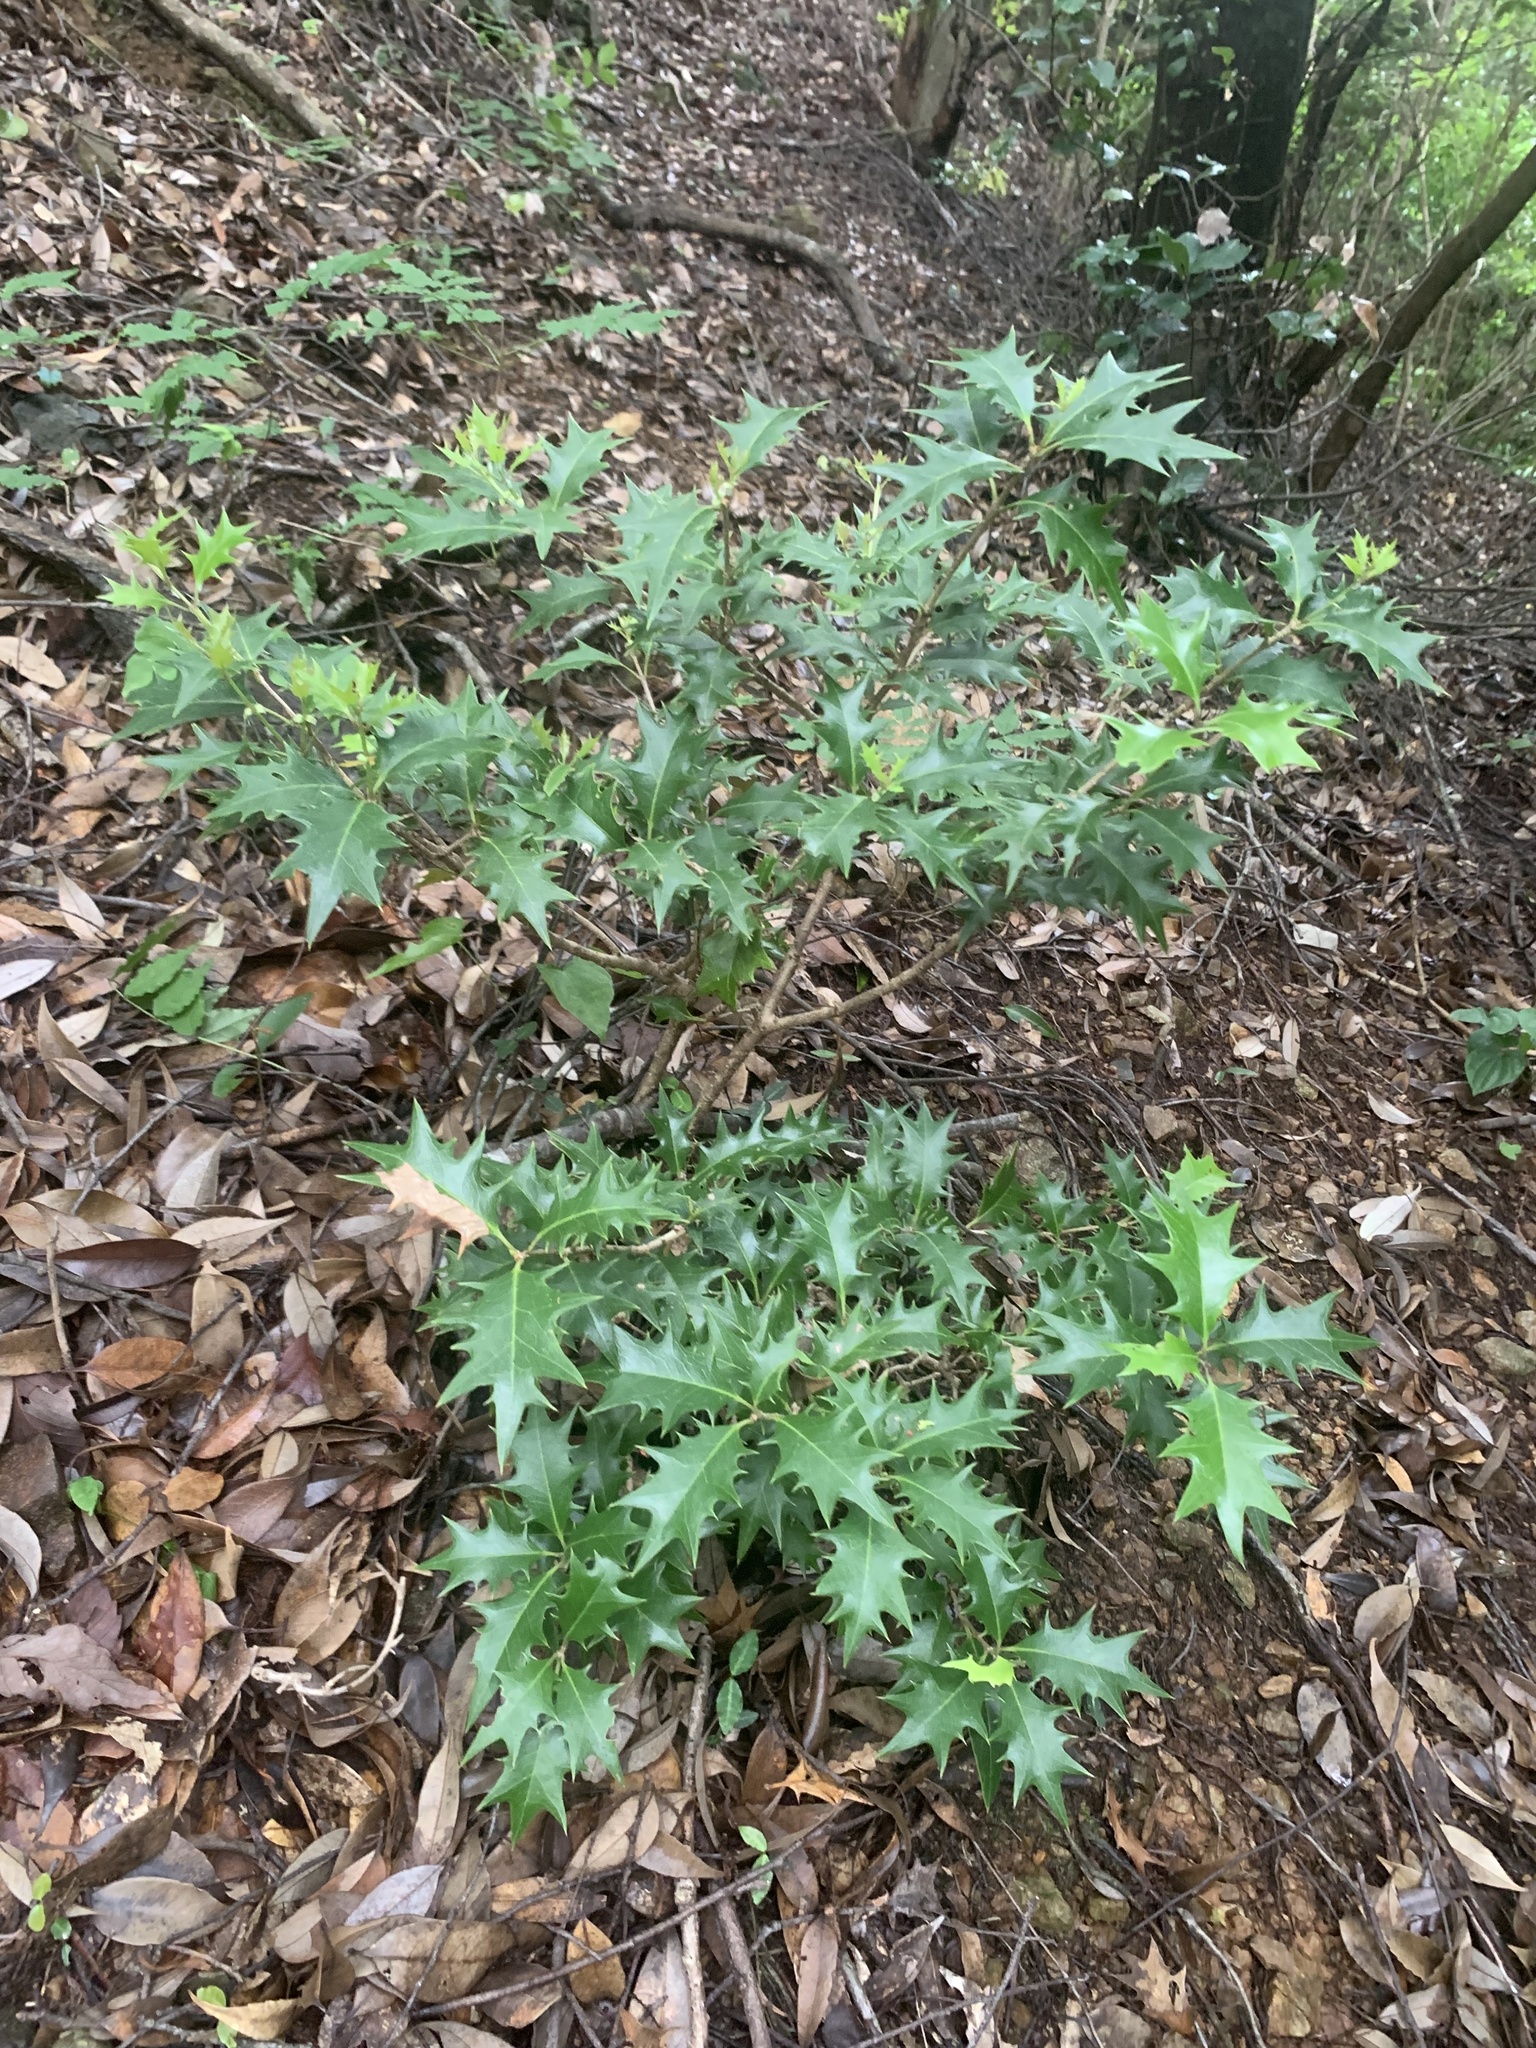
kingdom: Plantae
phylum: Tracheophyta
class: Magnoliopsida
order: Lamiales
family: Oleaceae
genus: Osmanthus
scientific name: Osmanthus heterophyllus
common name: Holly osmanthus
